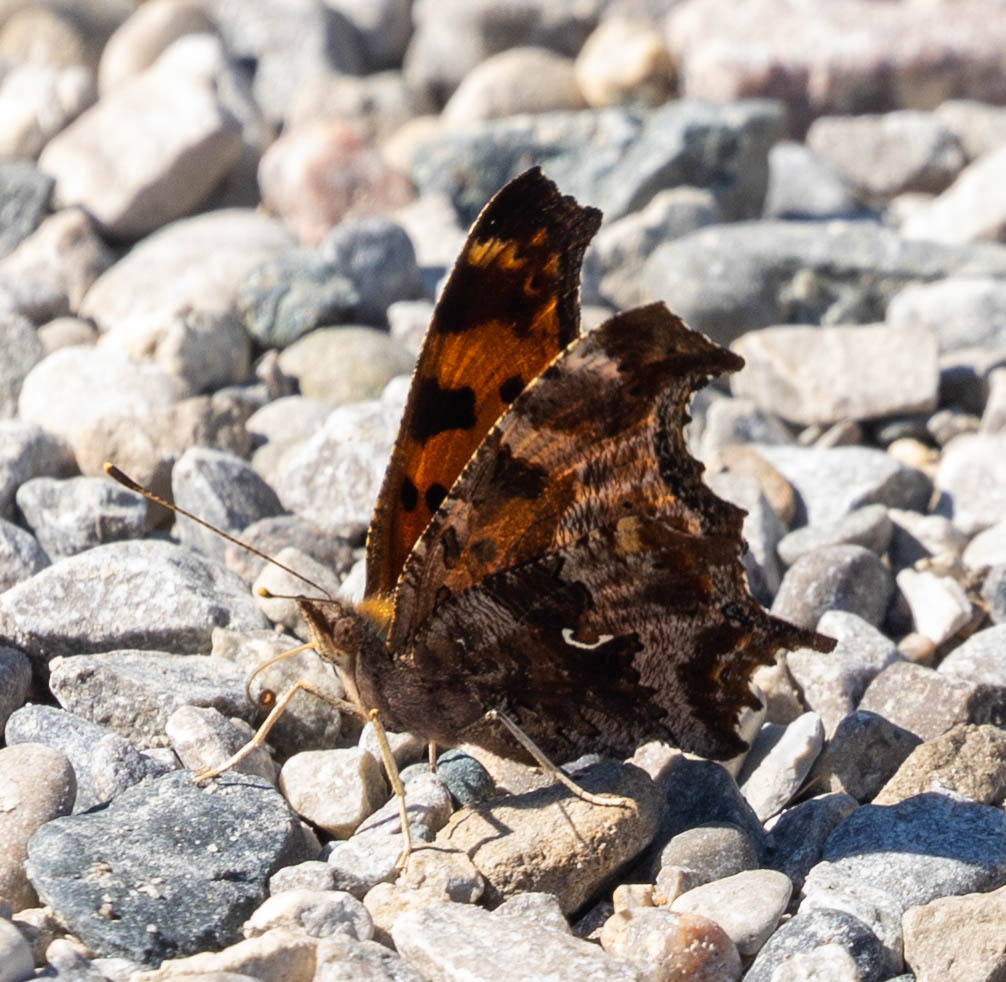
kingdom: Animalia
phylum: Arthropoda
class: Insecta
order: Lepidoptera
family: Nymphalidae
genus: Polygonia
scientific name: Polygonia comma
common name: Eastern comma
